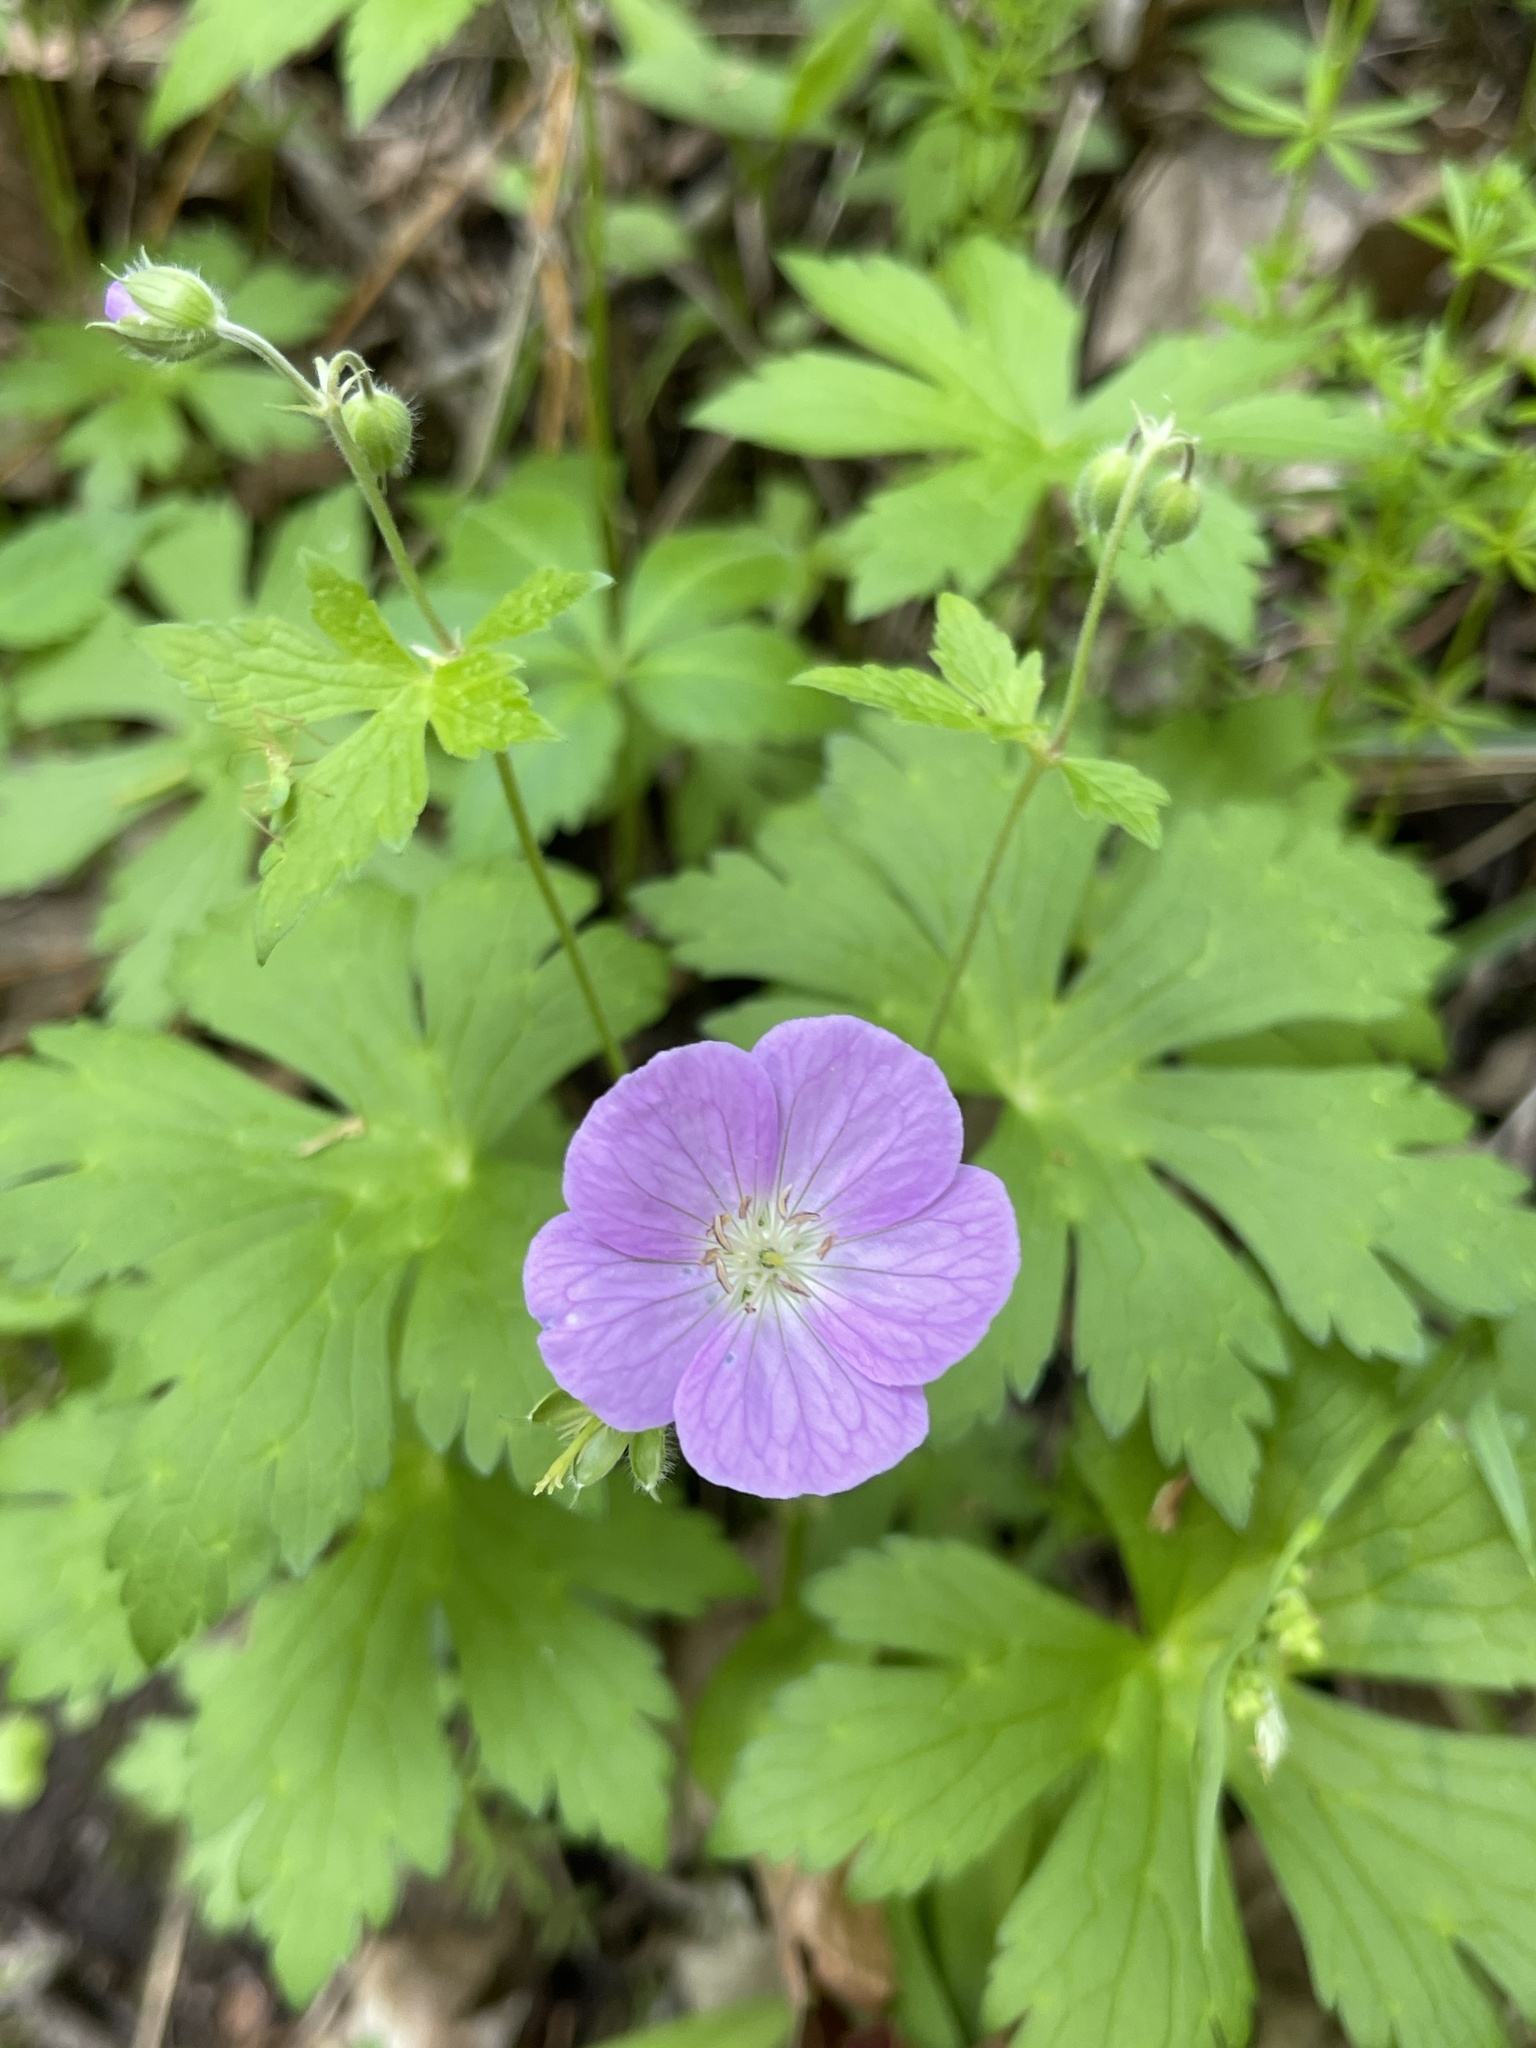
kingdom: Plantae
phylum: Tracheophyta
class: Magnoliopsida
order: Geraniales
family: Geraniaceae
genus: Geranium
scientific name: Geranium maculatum
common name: Spotted geranium
